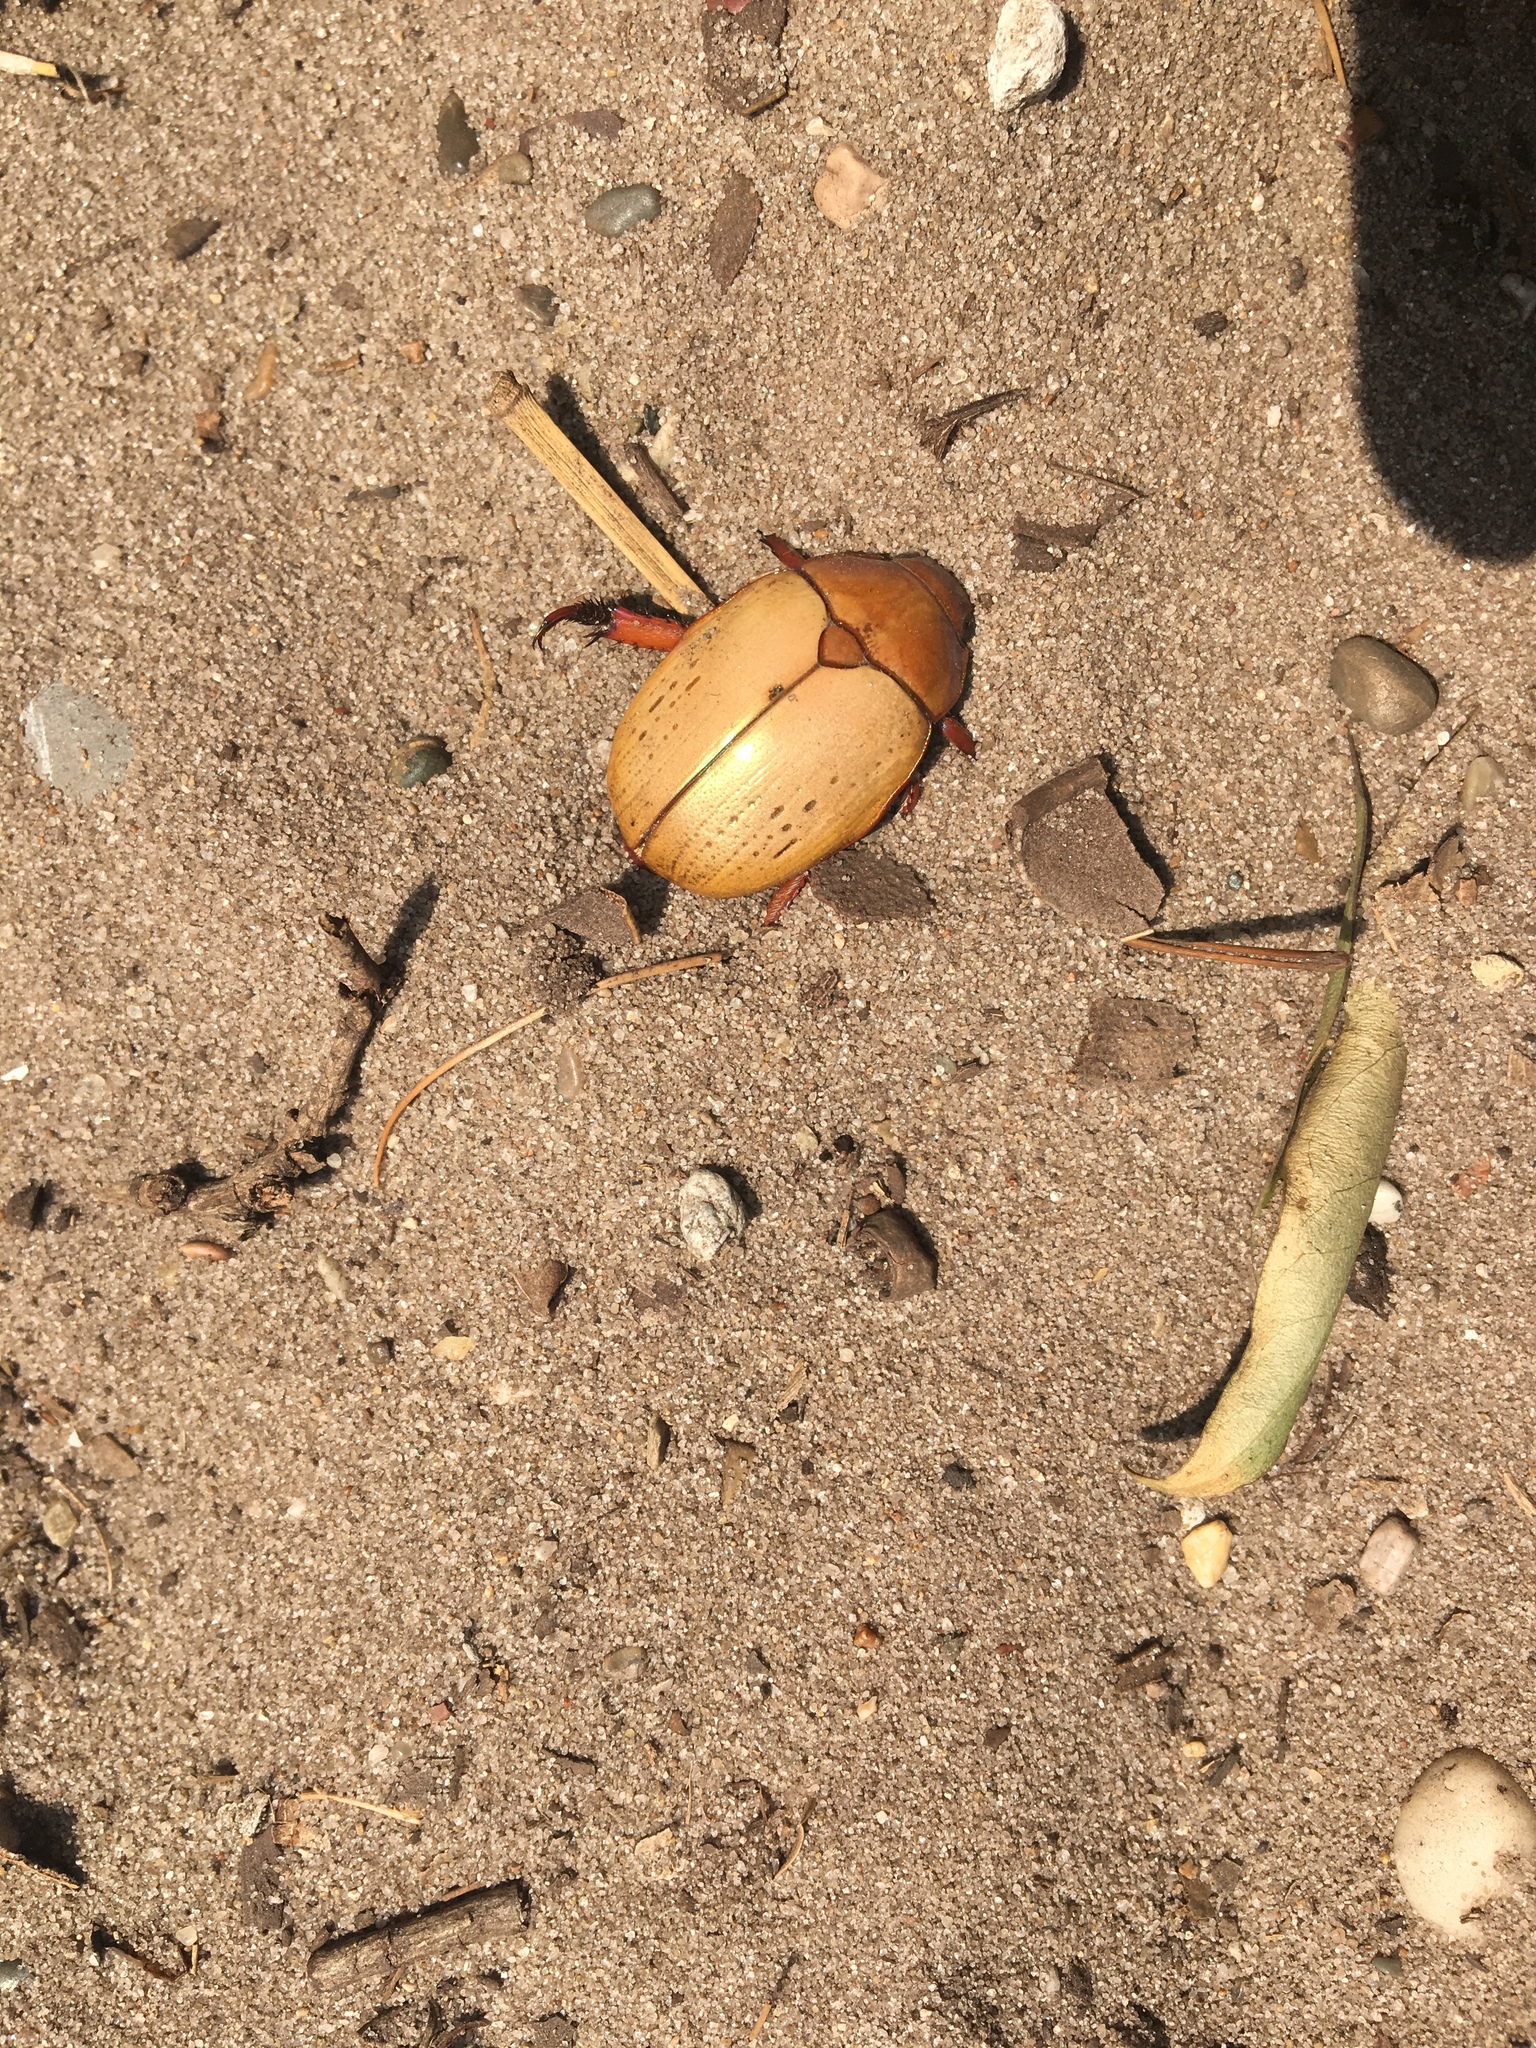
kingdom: Animalia
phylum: Arthropoda
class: Insecta
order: Coleoptera
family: Scarabaeidae
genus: Anoplognathus
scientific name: Anoplognathus olivieri
